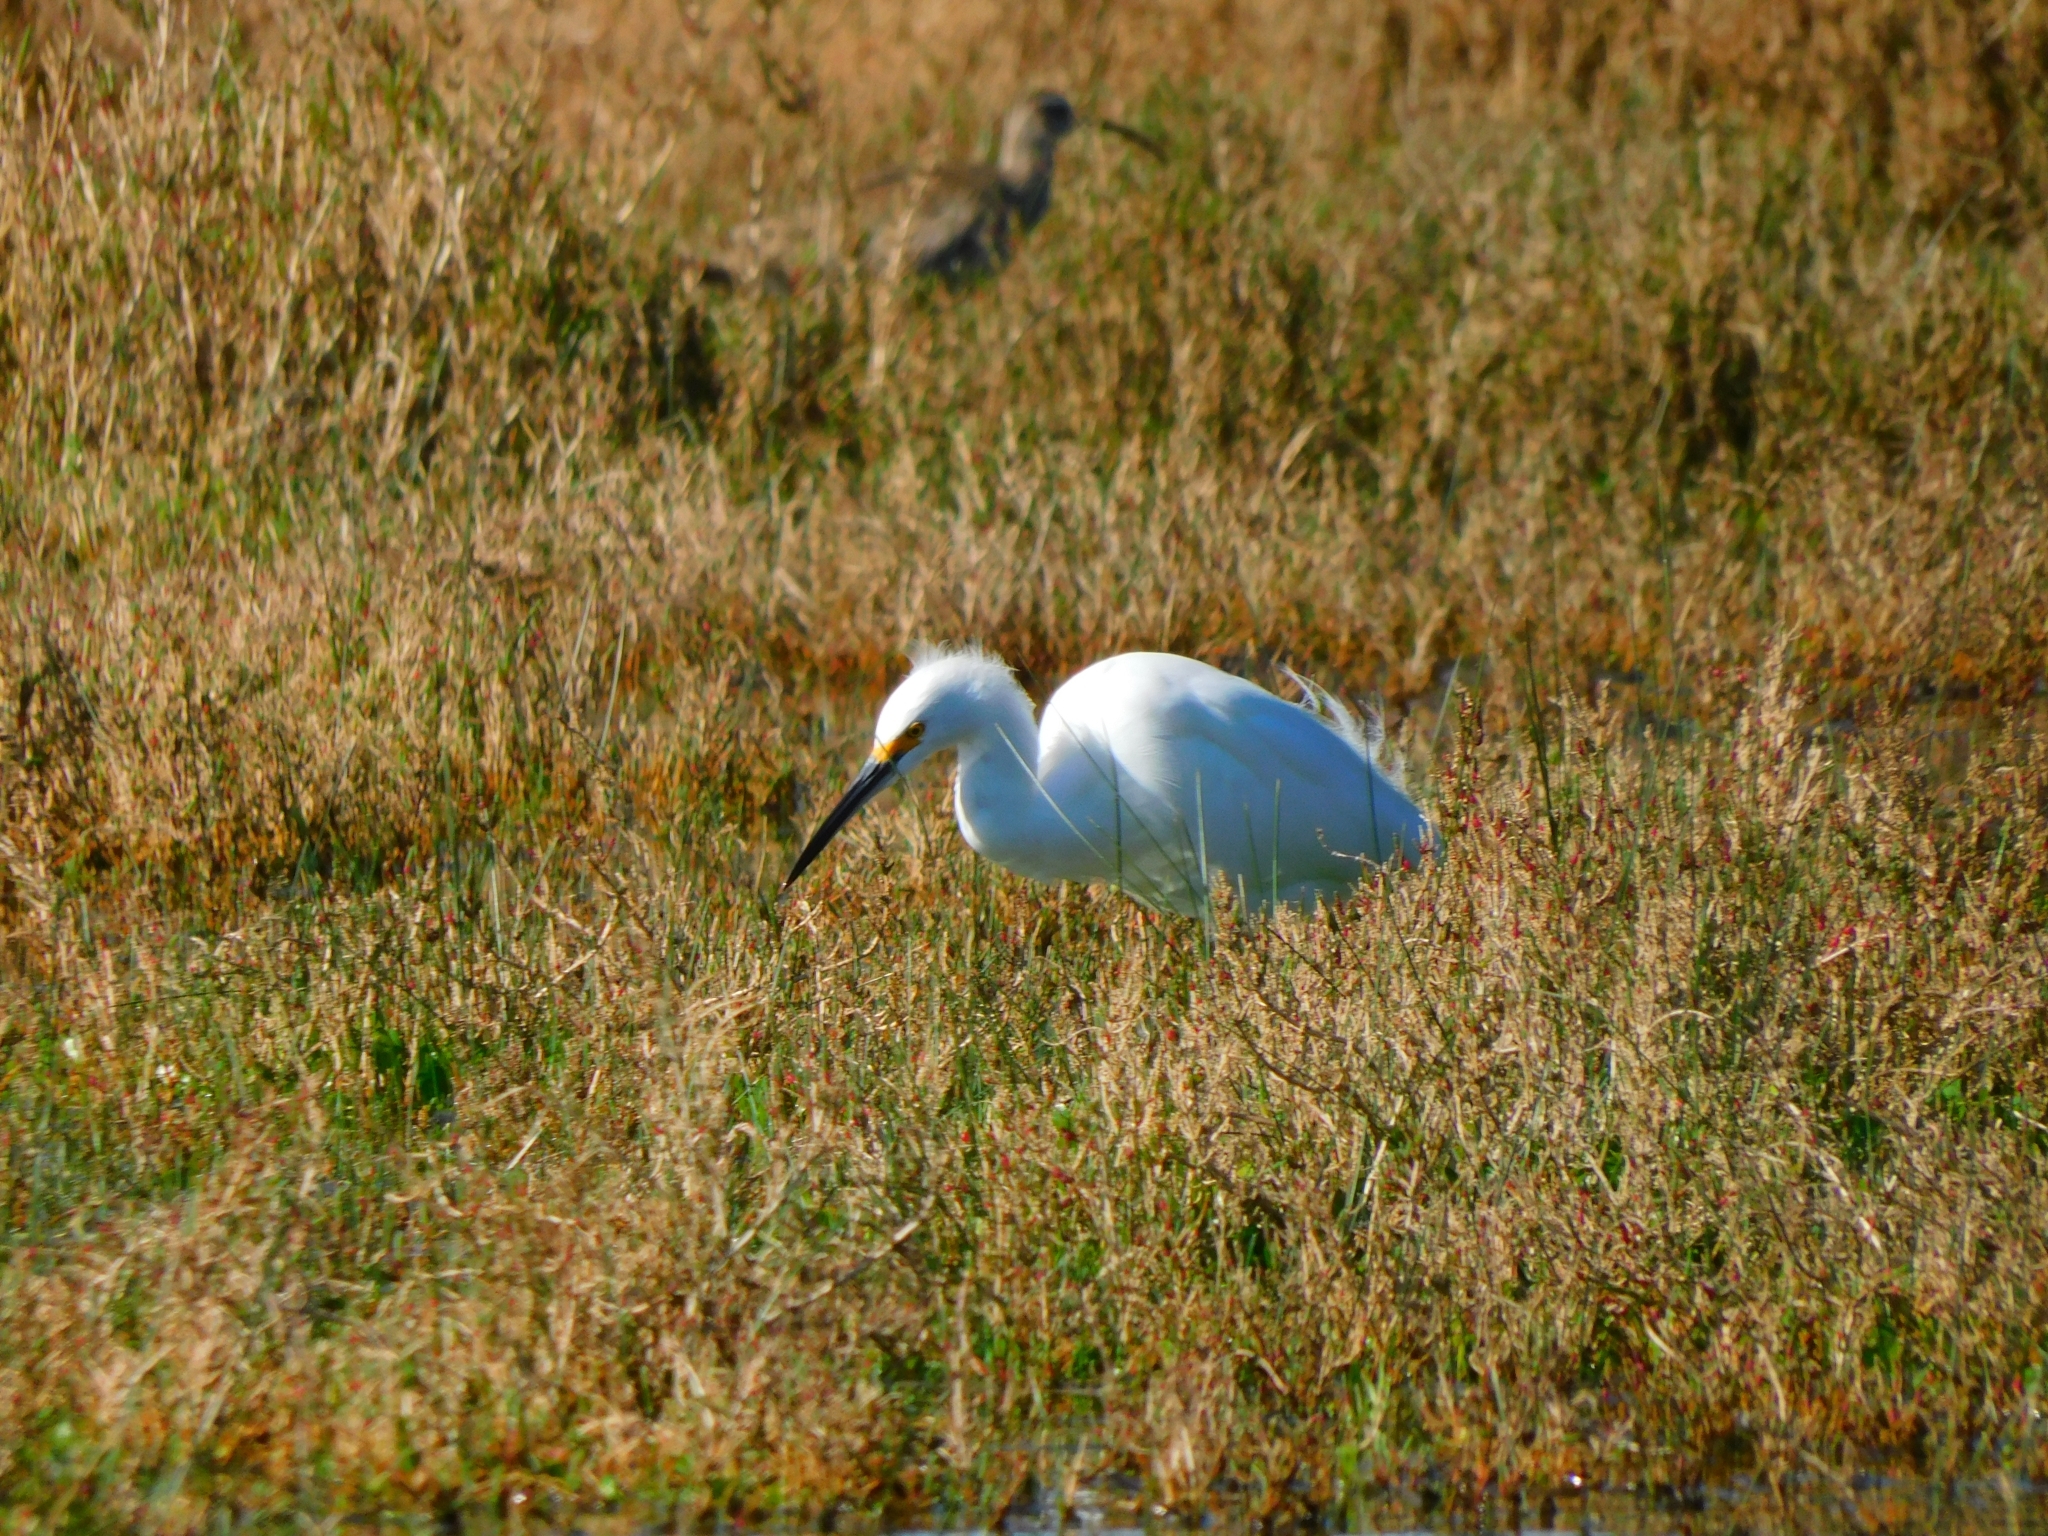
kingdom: Animalia
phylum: Chordata
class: Aves
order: Pelecaniformes
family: Ardeidae
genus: Egretta
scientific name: Egretta thula
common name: Snowy egret
